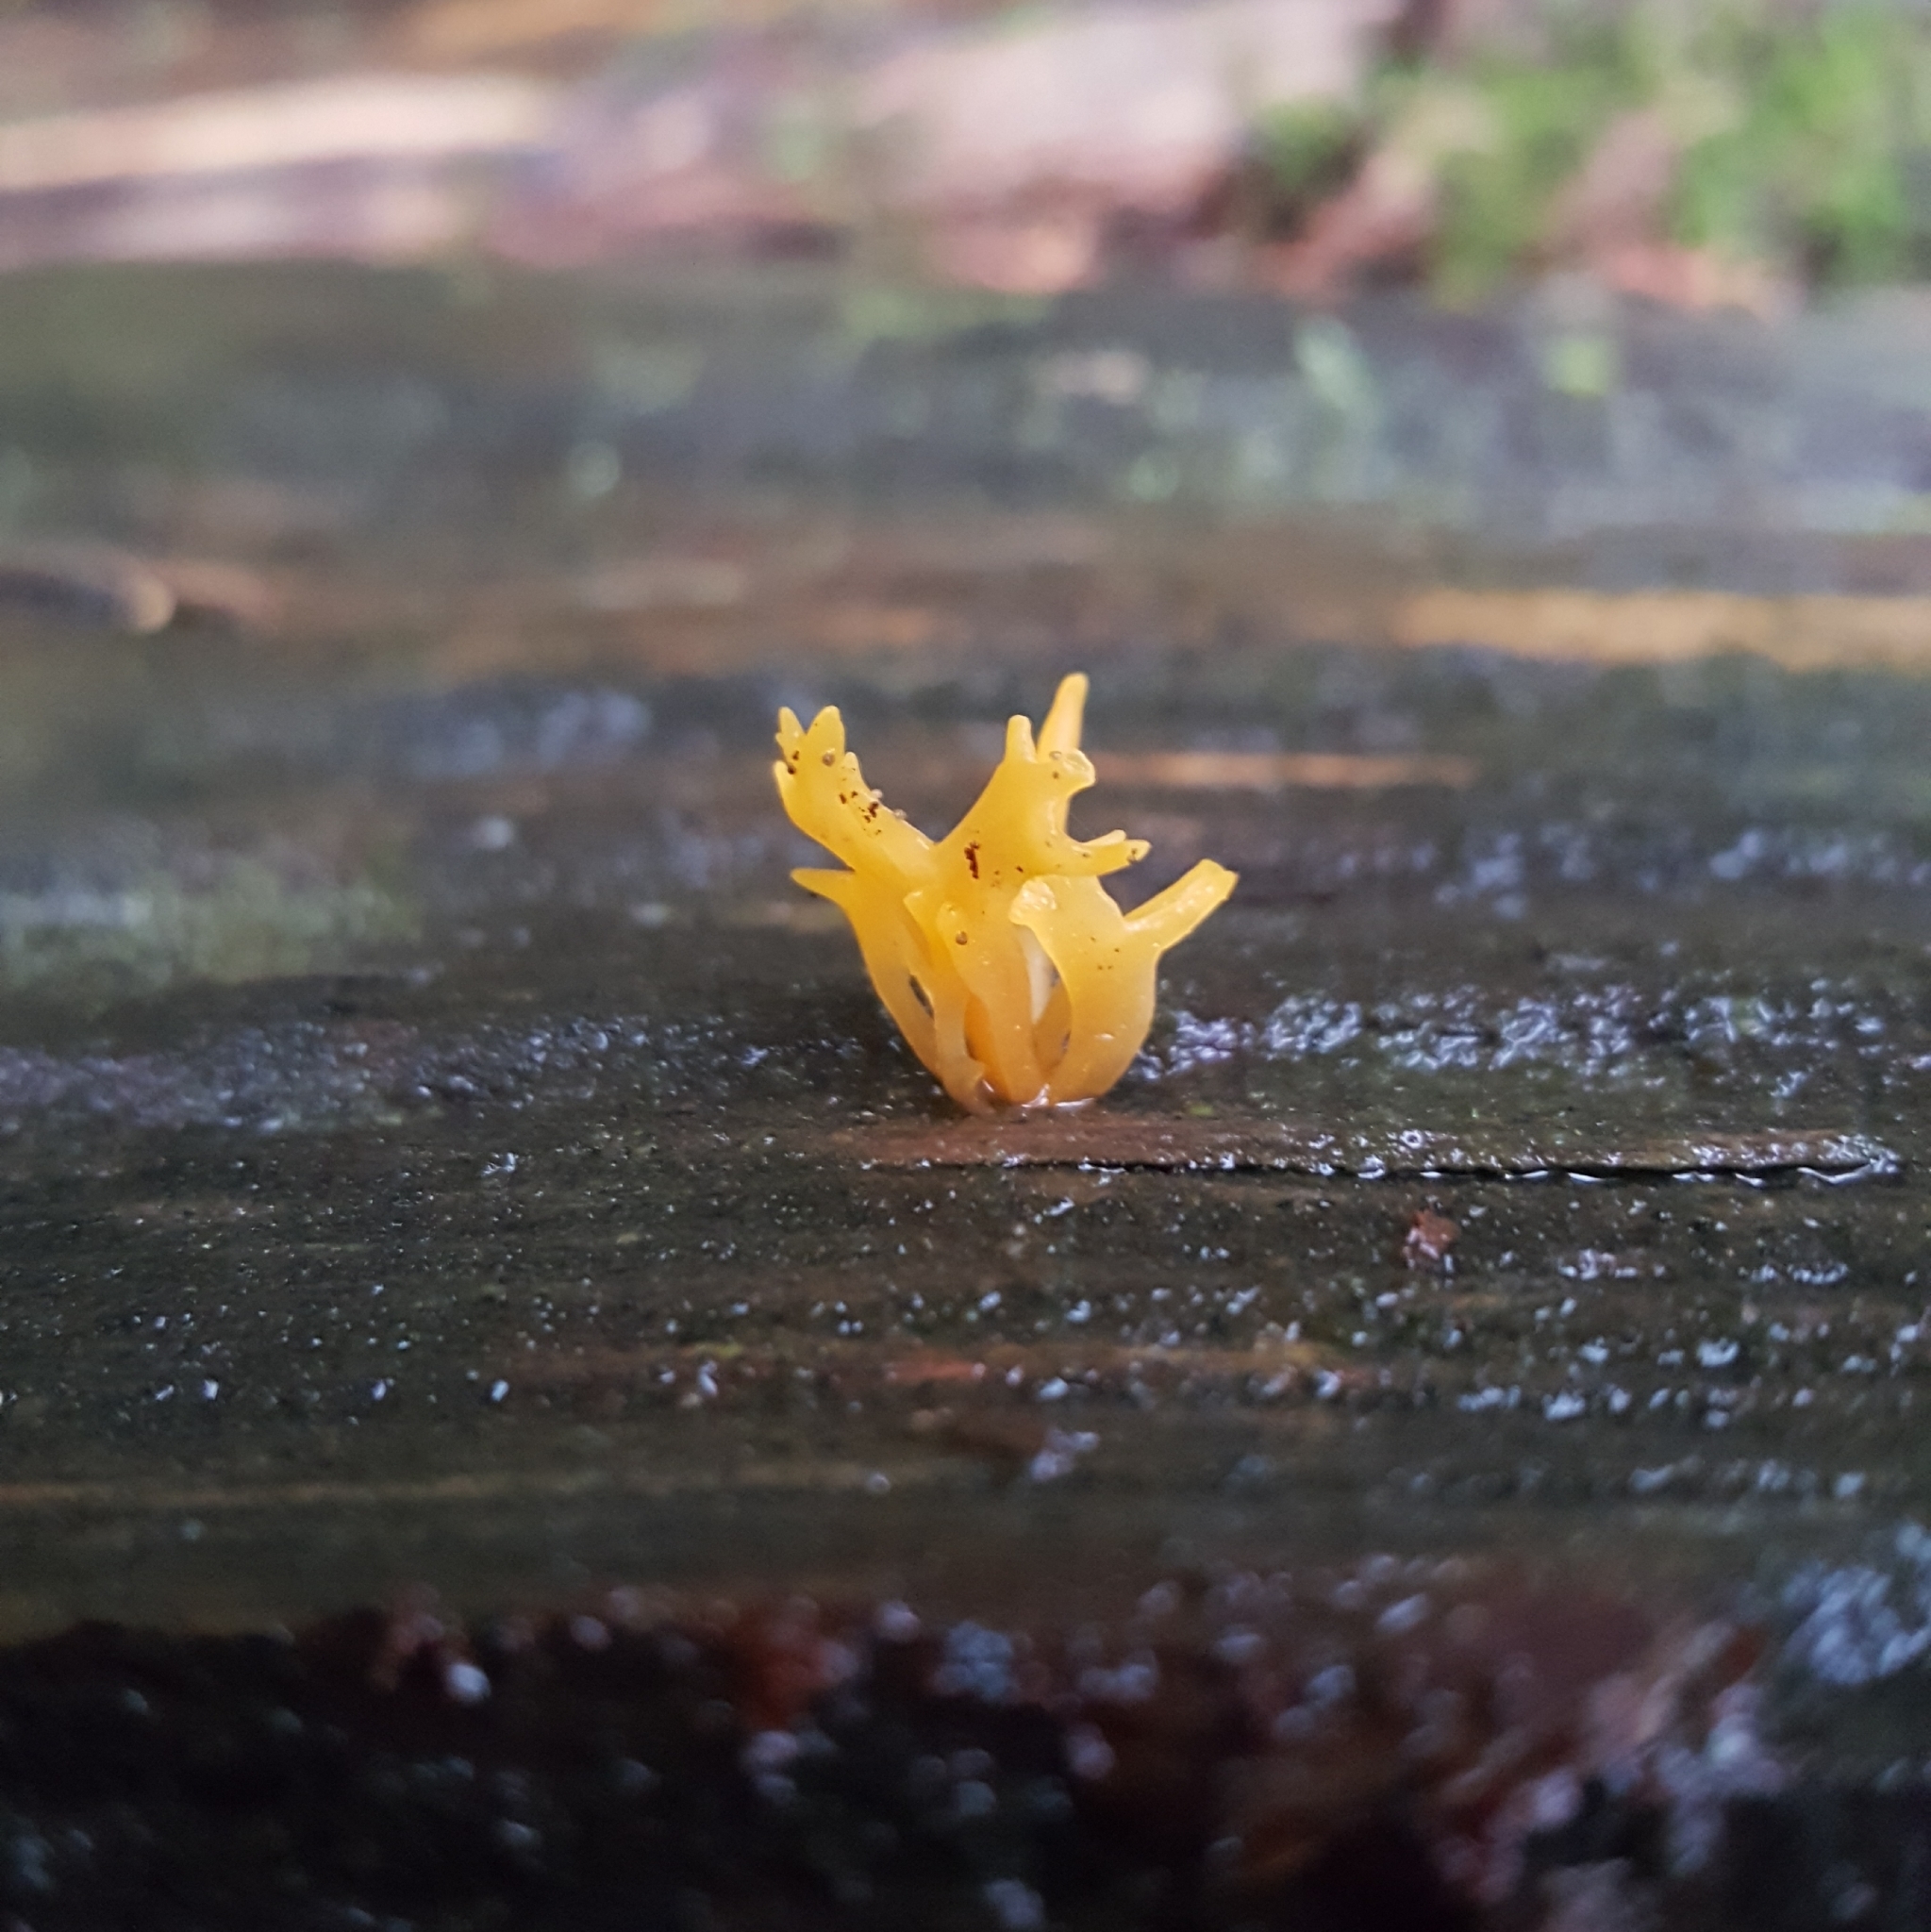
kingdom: Fungi
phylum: Basidiomycota
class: Dacrymycetes
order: Dacrymycetales
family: Dacrymycetaceae
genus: Calocera
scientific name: Calocera viscosa
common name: Yellow stagshorn
